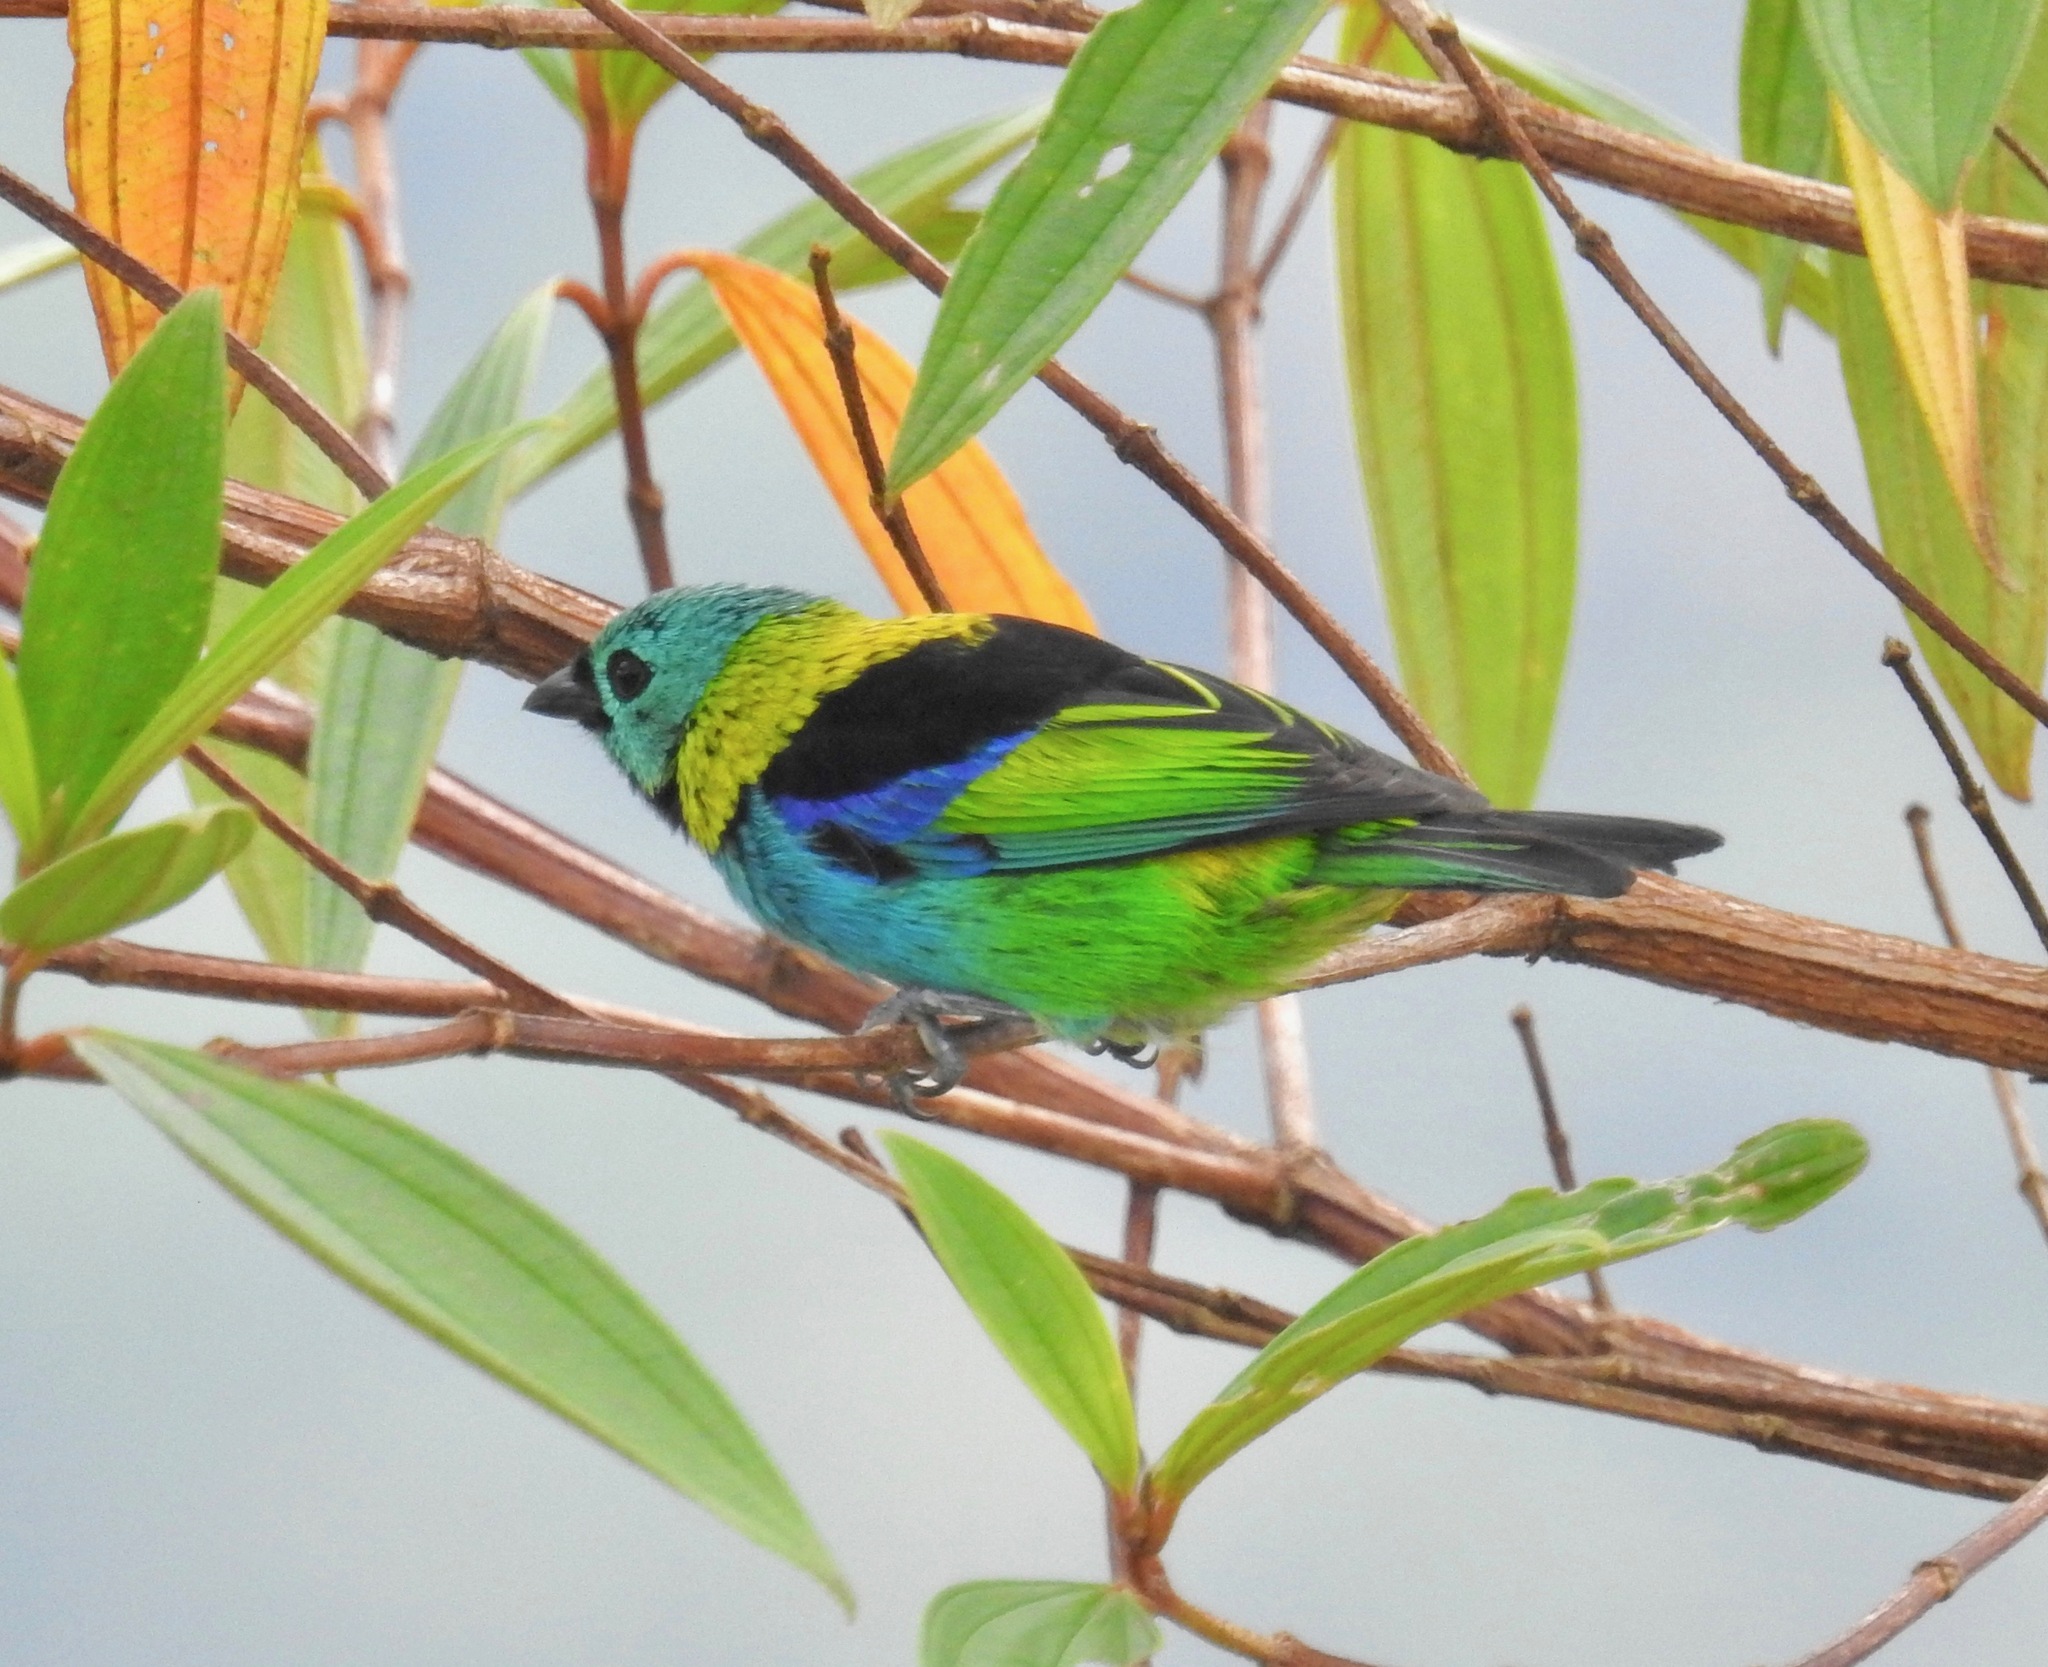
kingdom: Animalia
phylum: Chordata
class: Aves
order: Passeriformes
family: Thraupidae
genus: Tangara
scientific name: Tangara seledon
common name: Green-headed tanager
